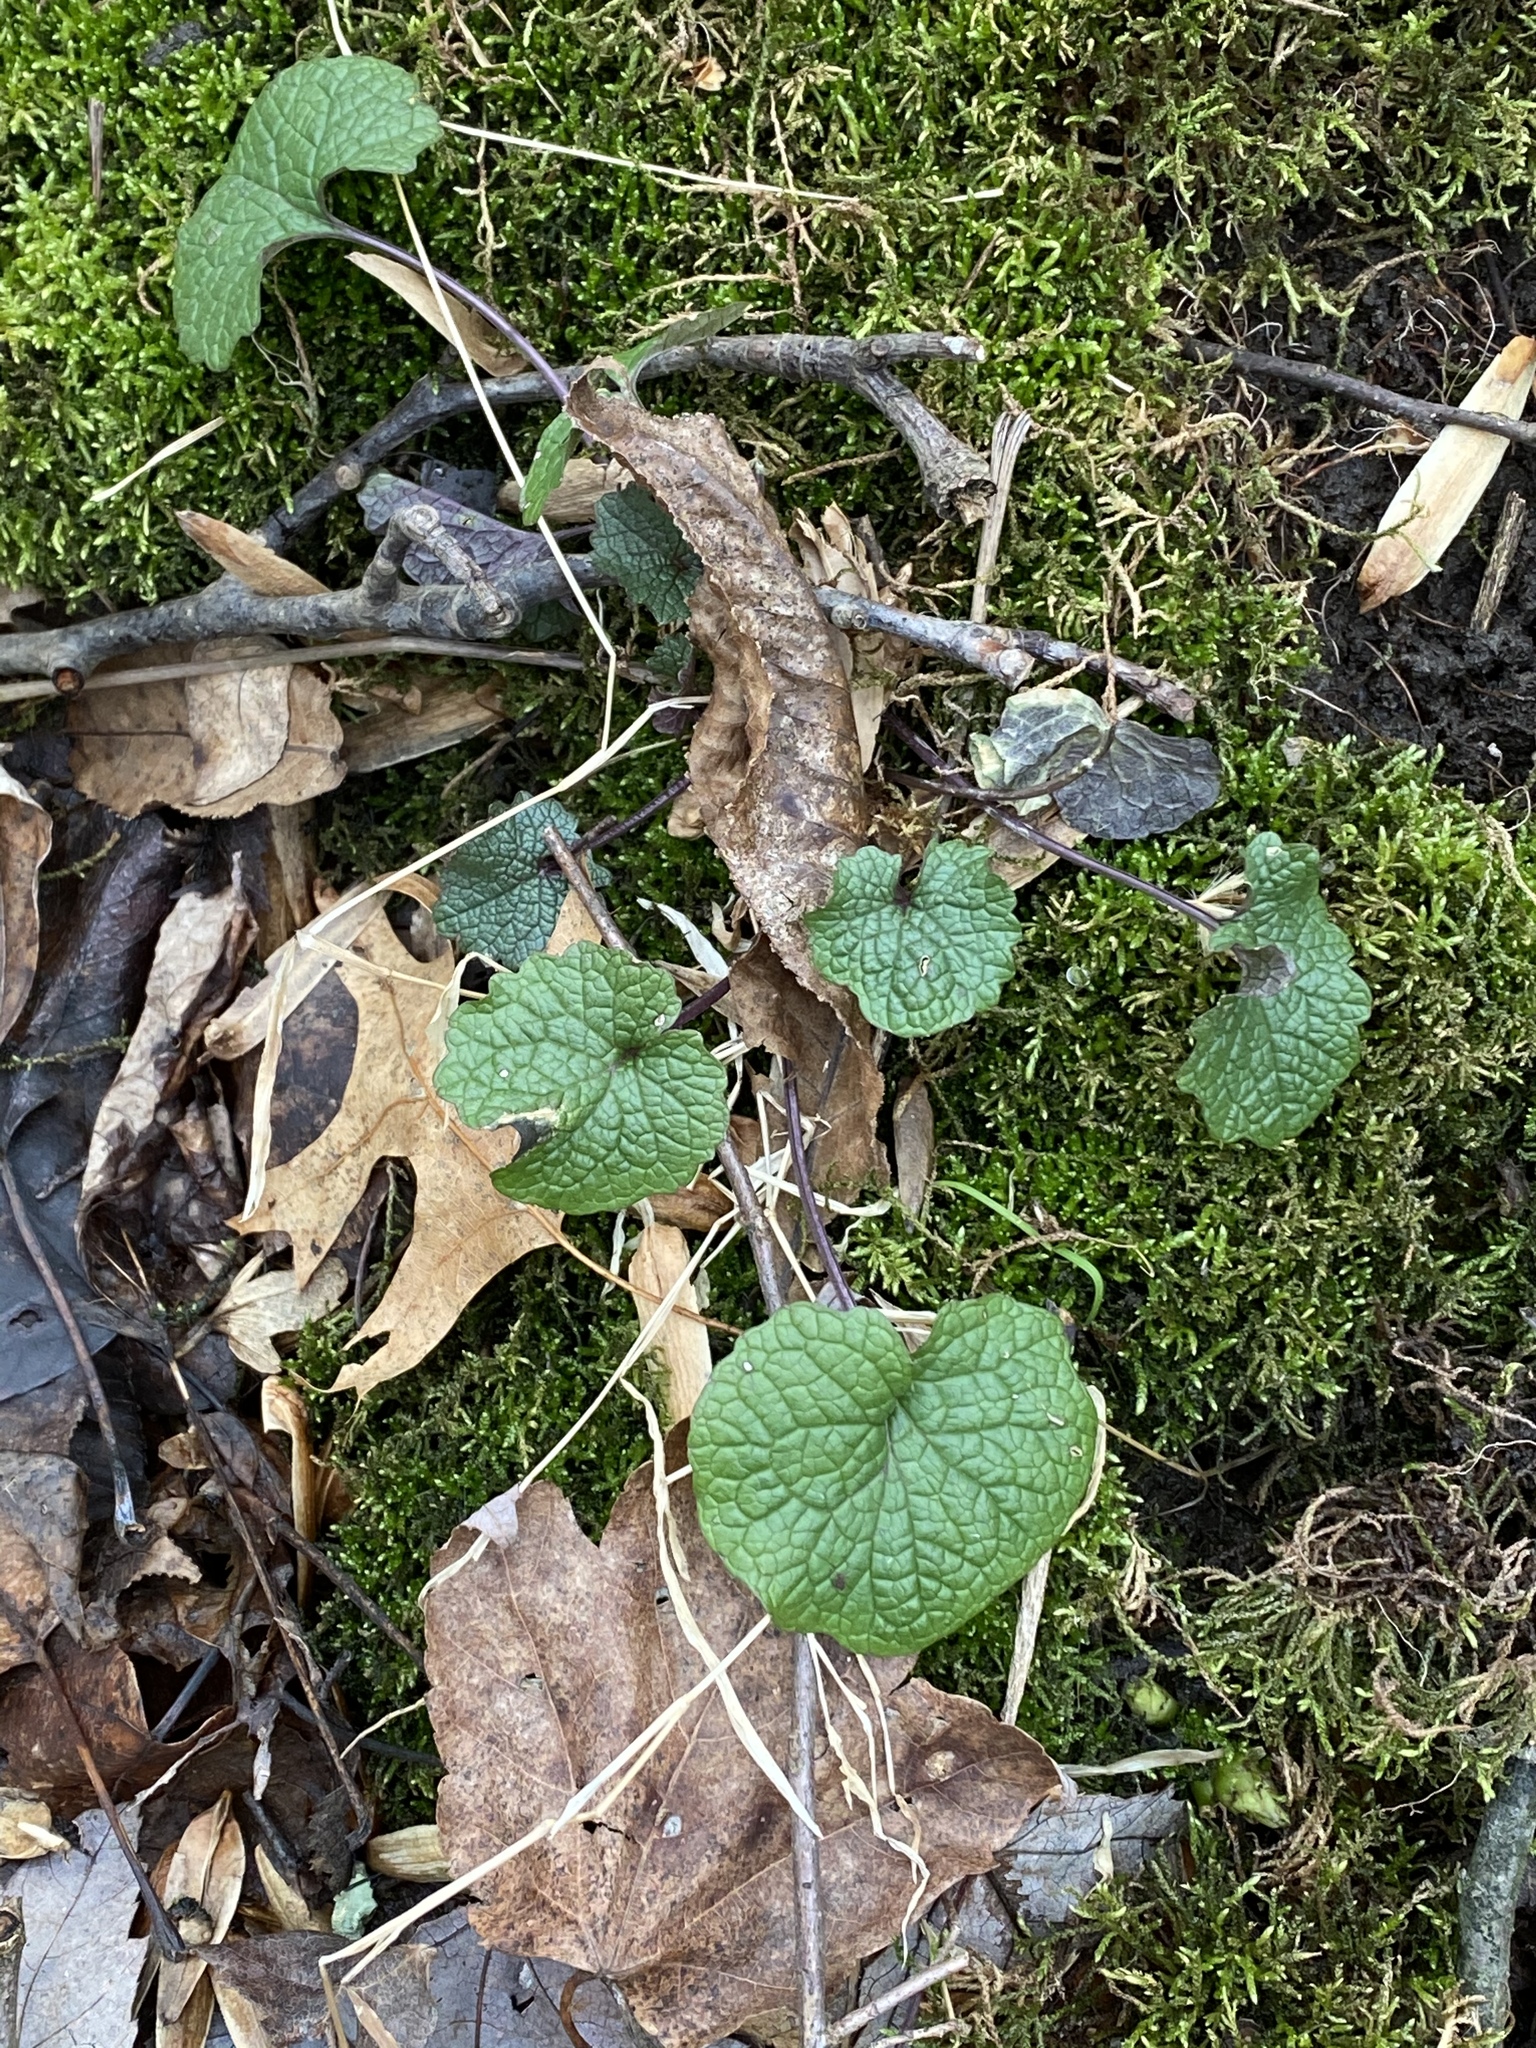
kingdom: Plantae
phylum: Tracheophyta
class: Magnoliopsida
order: Brassicales
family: Brassicaceae
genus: Alliaria
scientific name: Alliaria petiolata
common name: Garlic mustard
